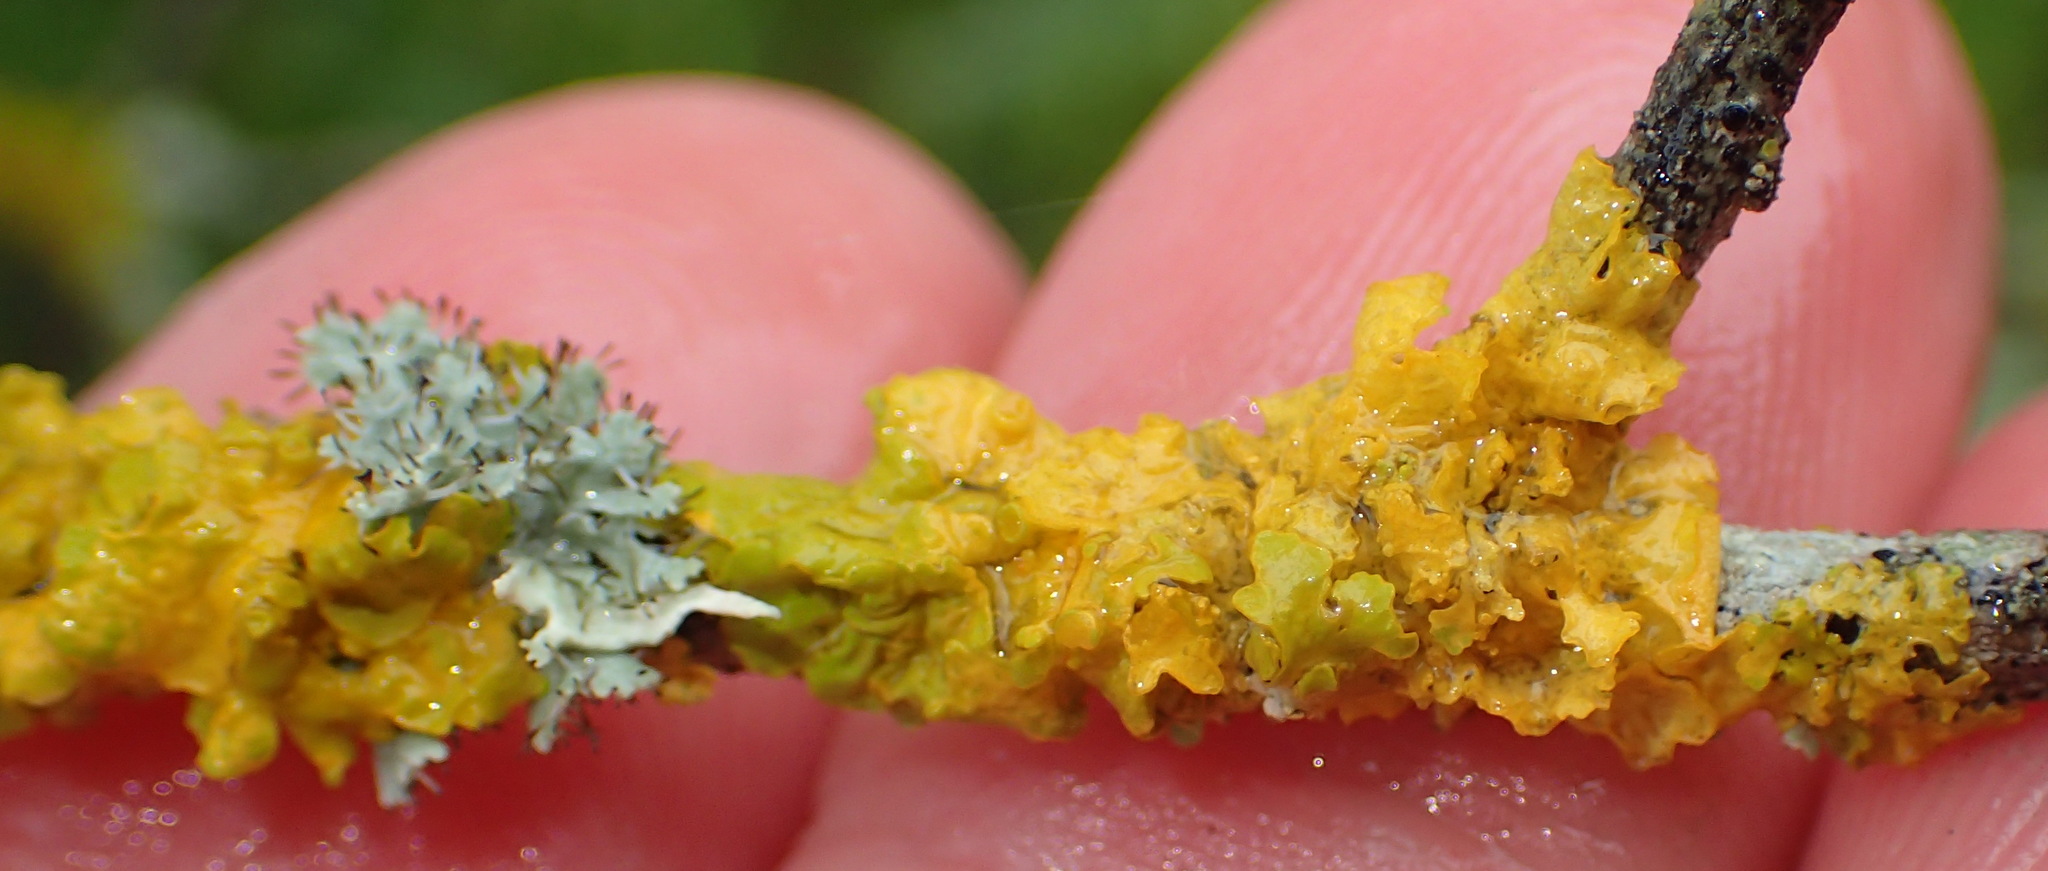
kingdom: Fungi
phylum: Ascomycota
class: Lecanoromycetes
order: Teloschistales
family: Teloschistaceae
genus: Xanthoria
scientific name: Xanthoria parietina
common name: Common orange lichen
